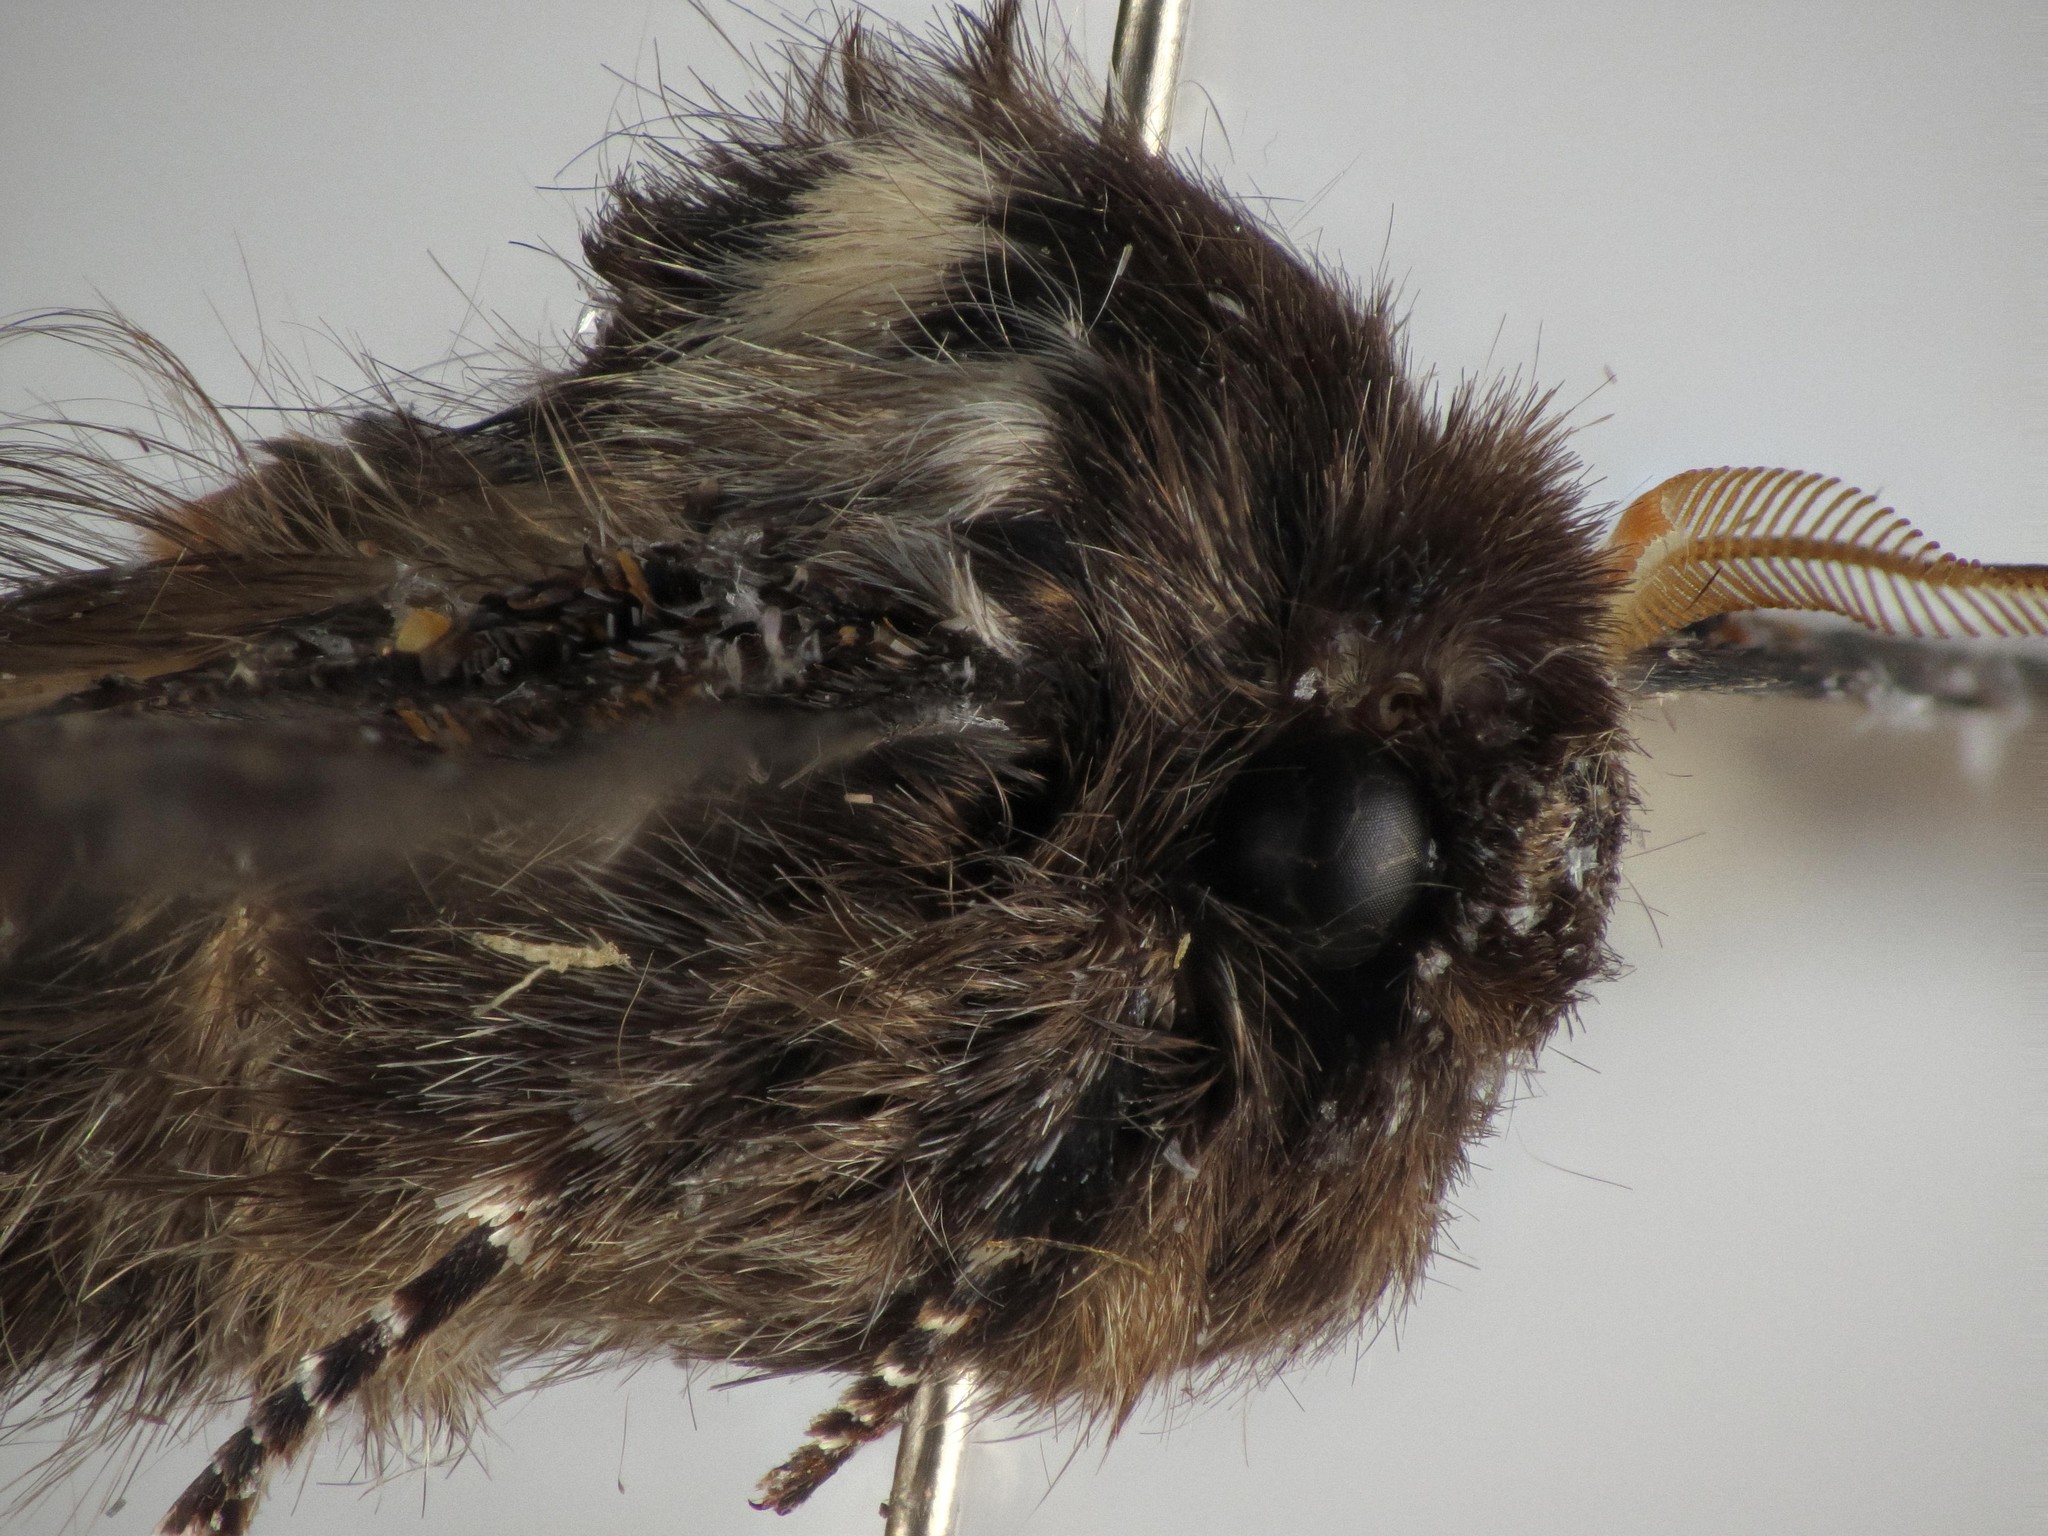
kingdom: Animalia
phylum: Arthropoda
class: Insecta
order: Lepidoptera
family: Oenosandridae
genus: Oenosandra
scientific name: Oenosandra boisduvalii
